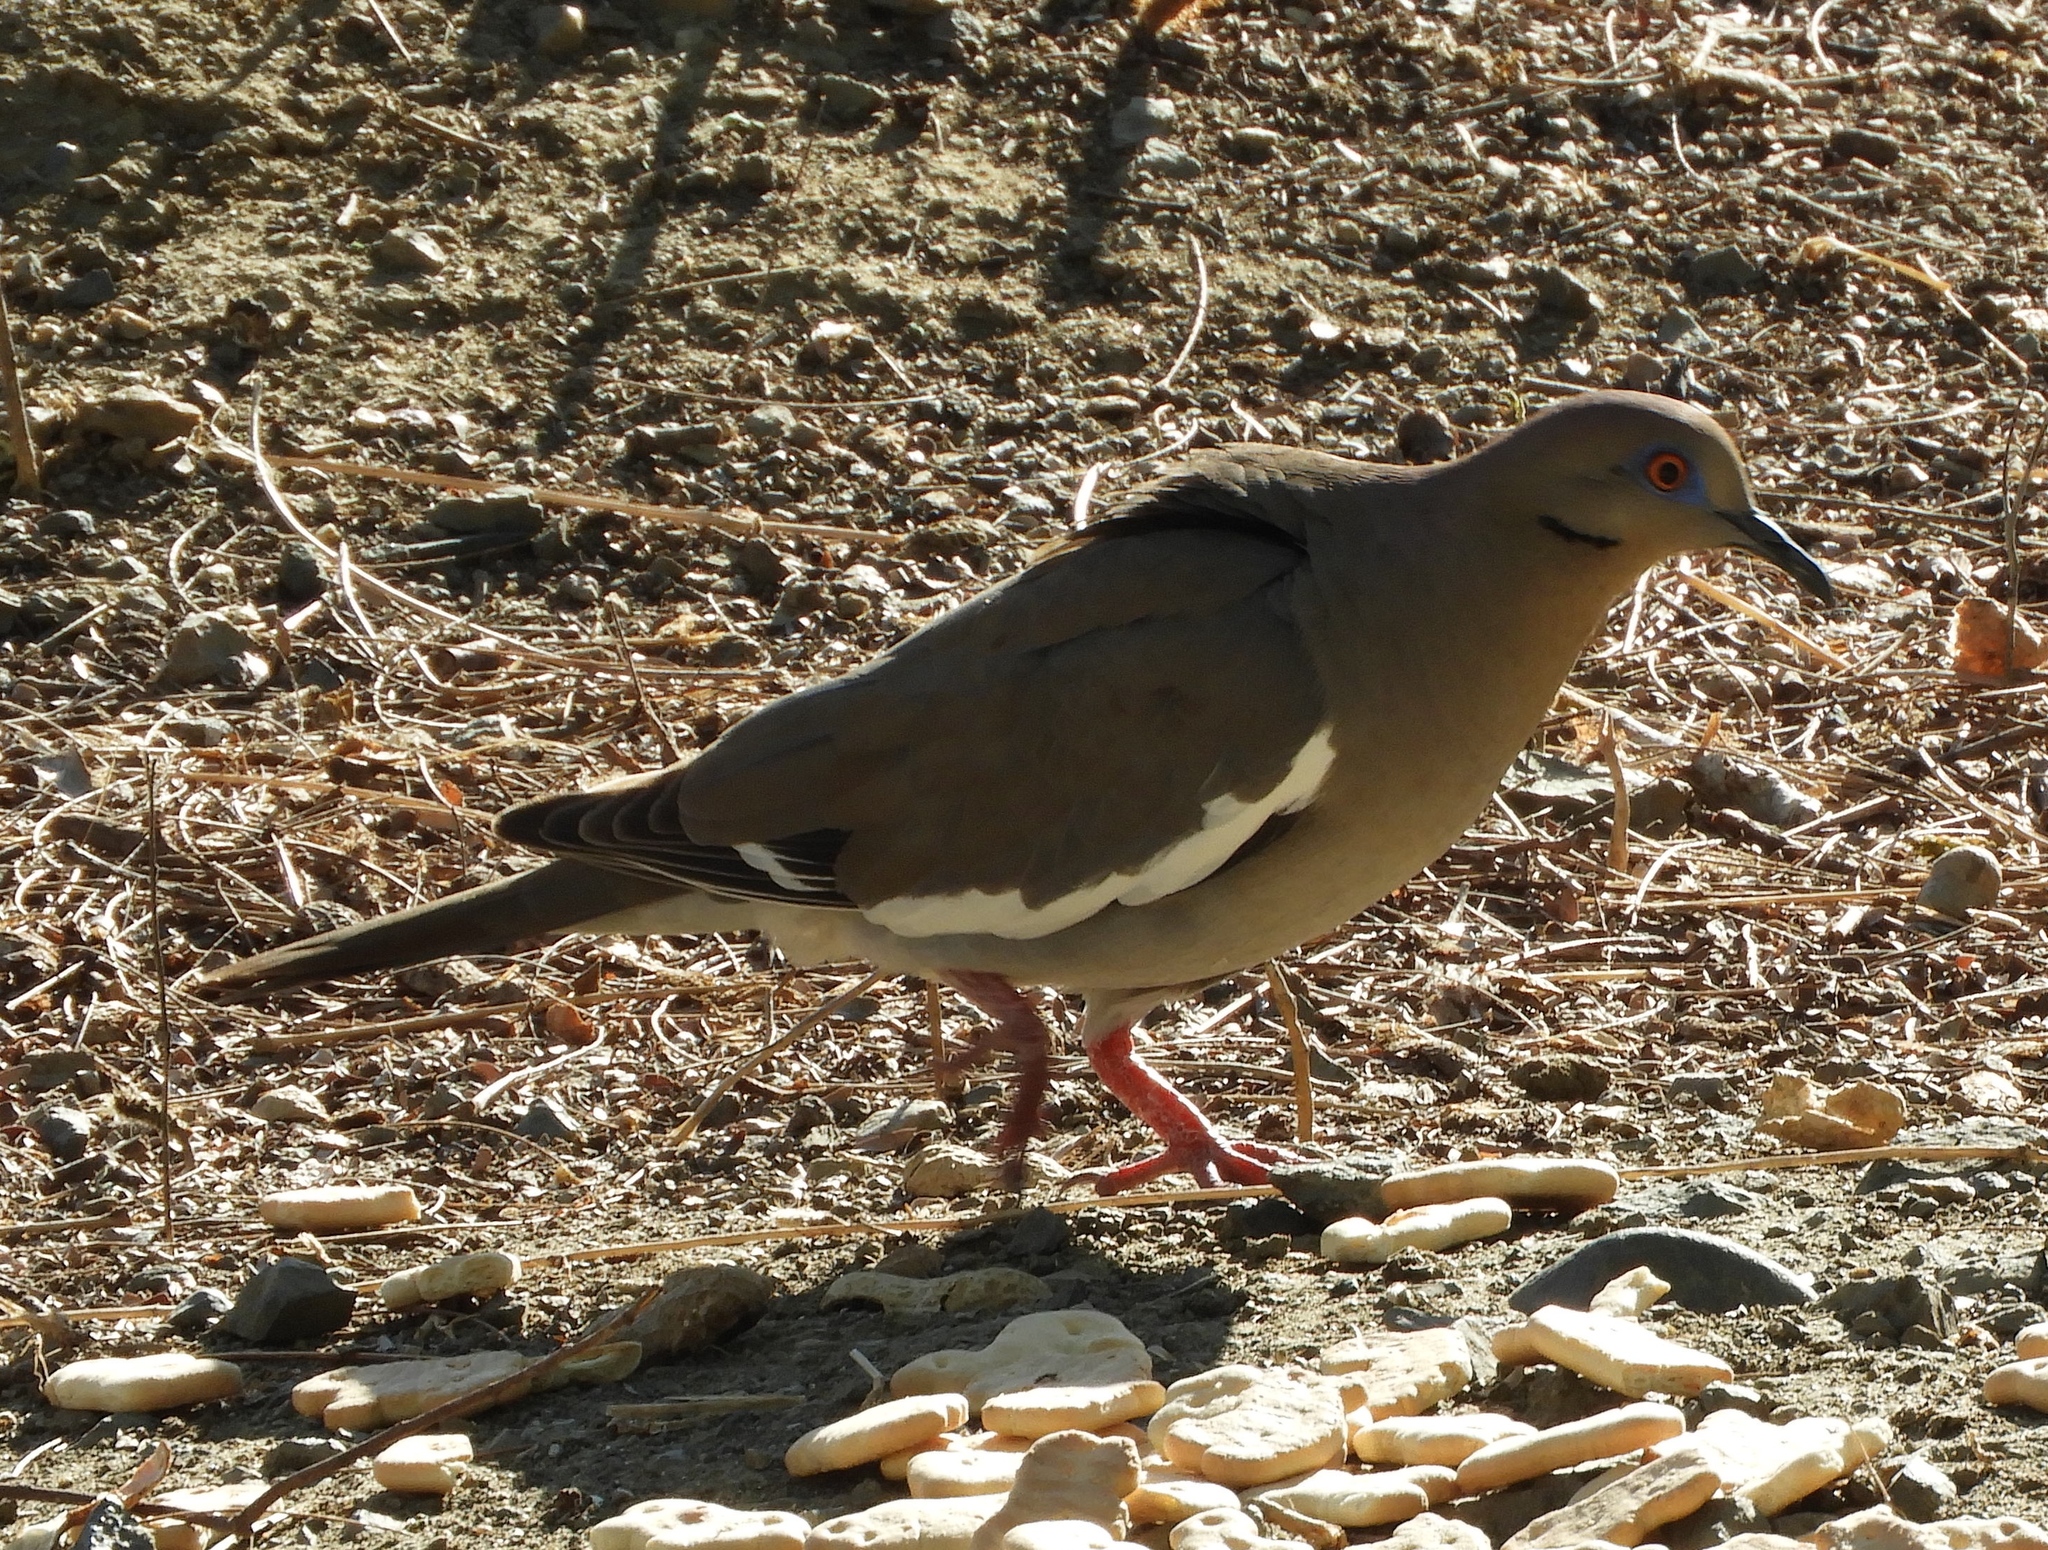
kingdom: Animalia
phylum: Chordata
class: Aves
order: Columbiformes
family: Columbidae
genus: Zenaida
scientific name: Zenaida asiatica
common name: White-winged dove
